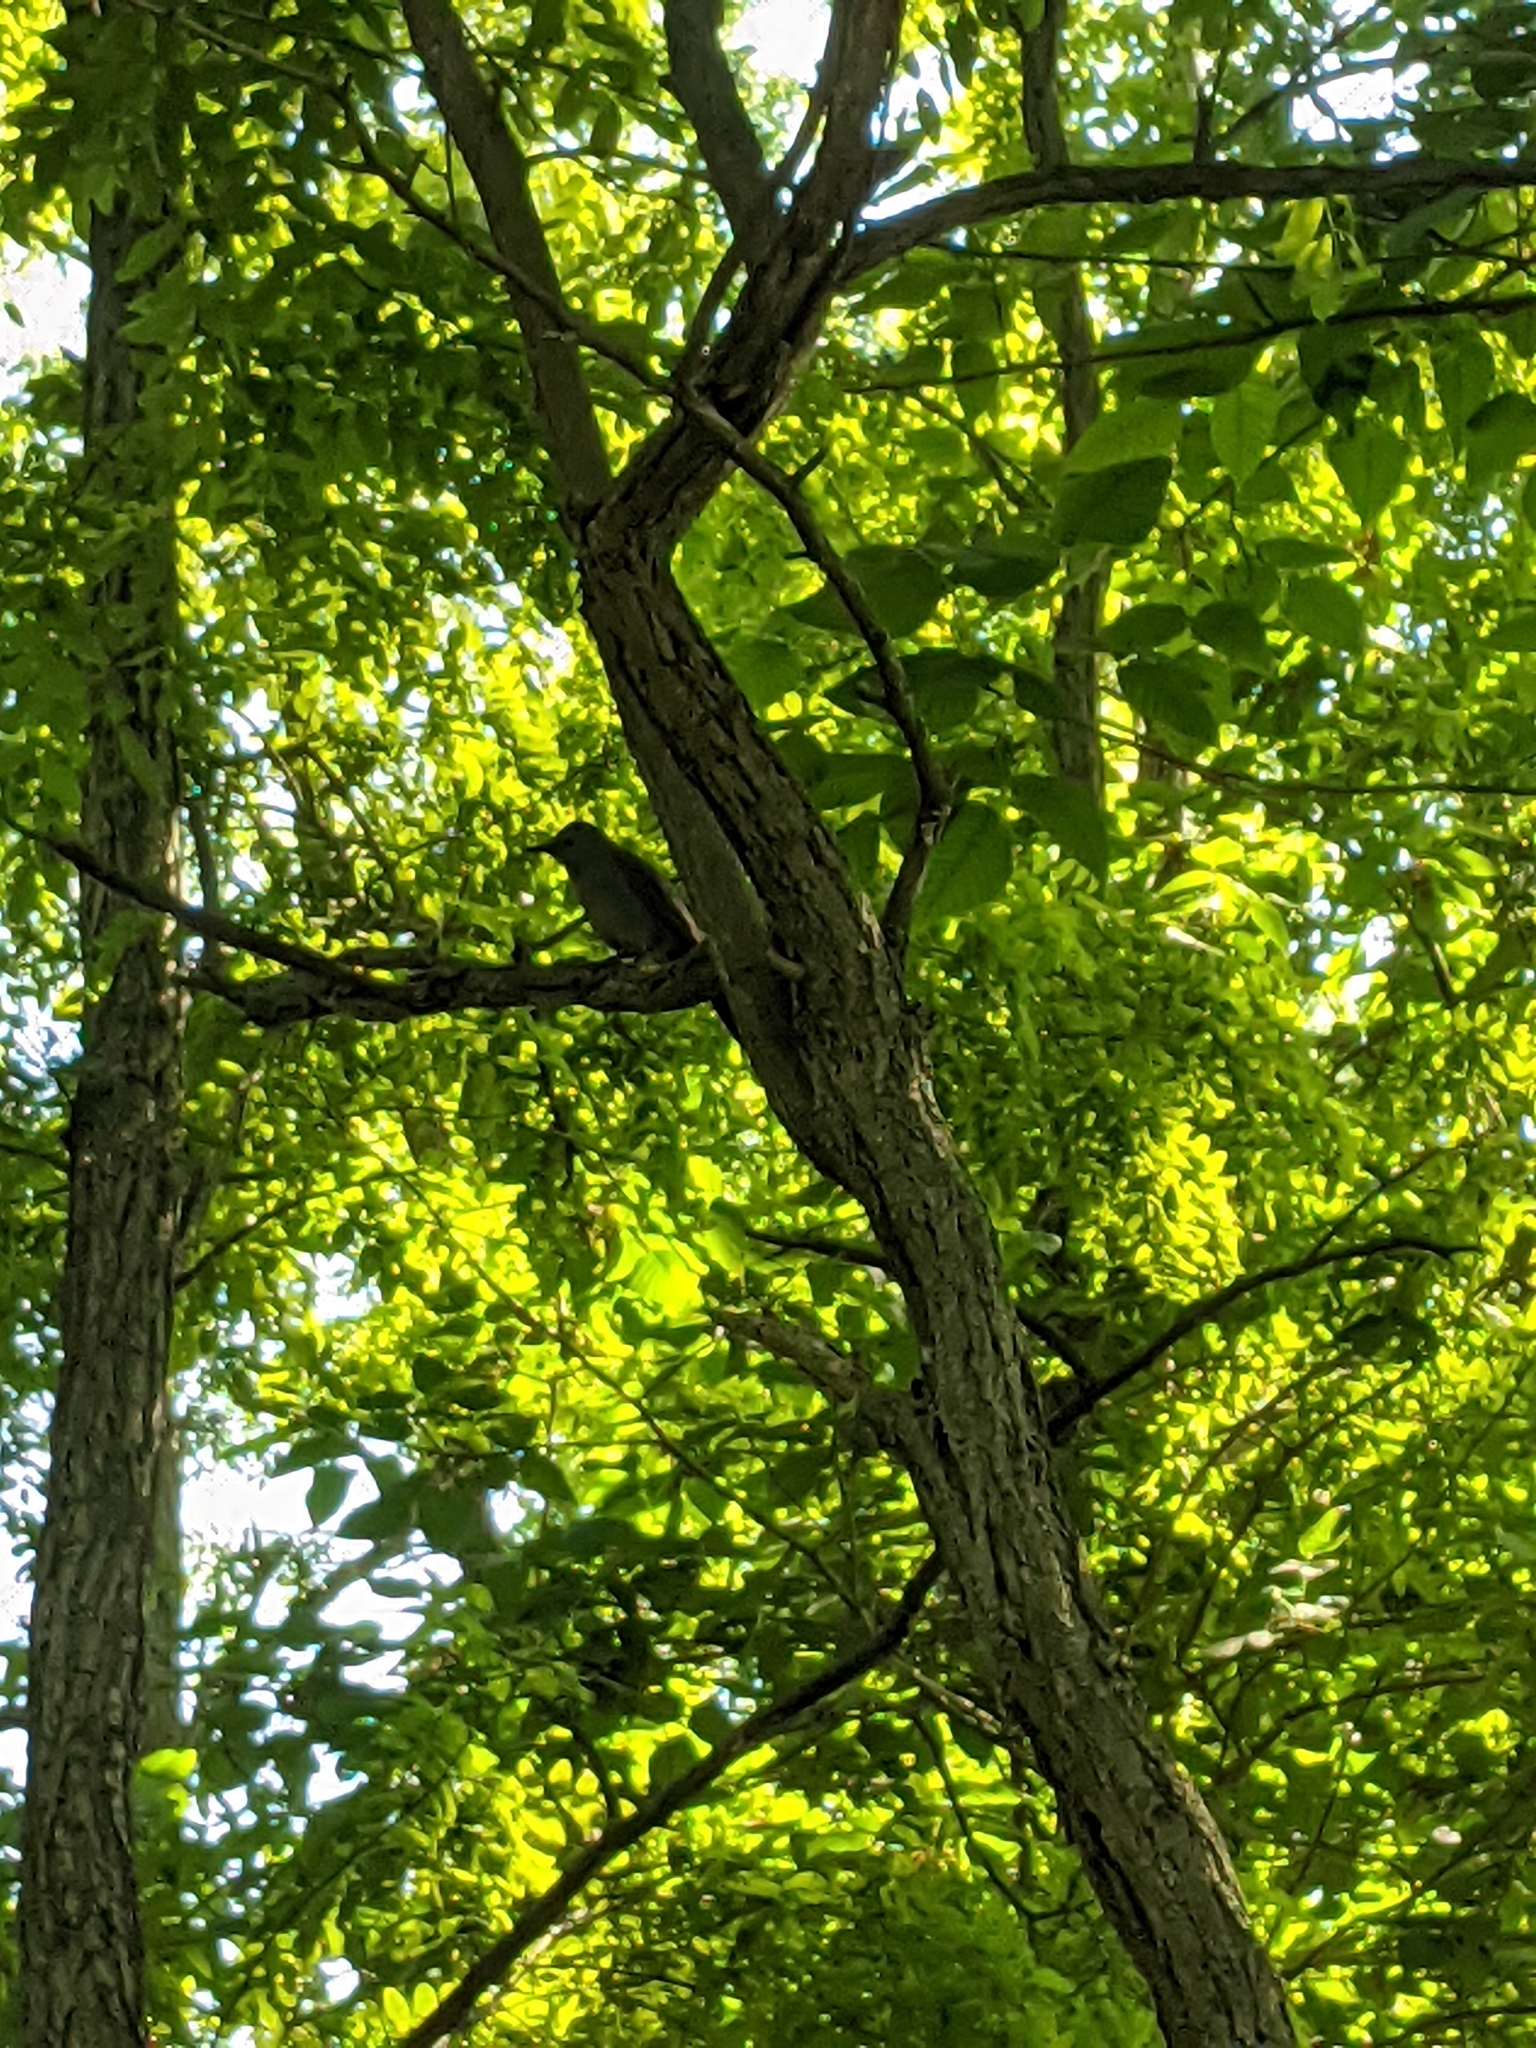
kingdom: Animalia
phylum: Chordata
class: Aves
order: Passeriformes
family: Mimidae
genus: Dumetella
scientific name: Dumetella carolinensis
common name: Gray catbird
